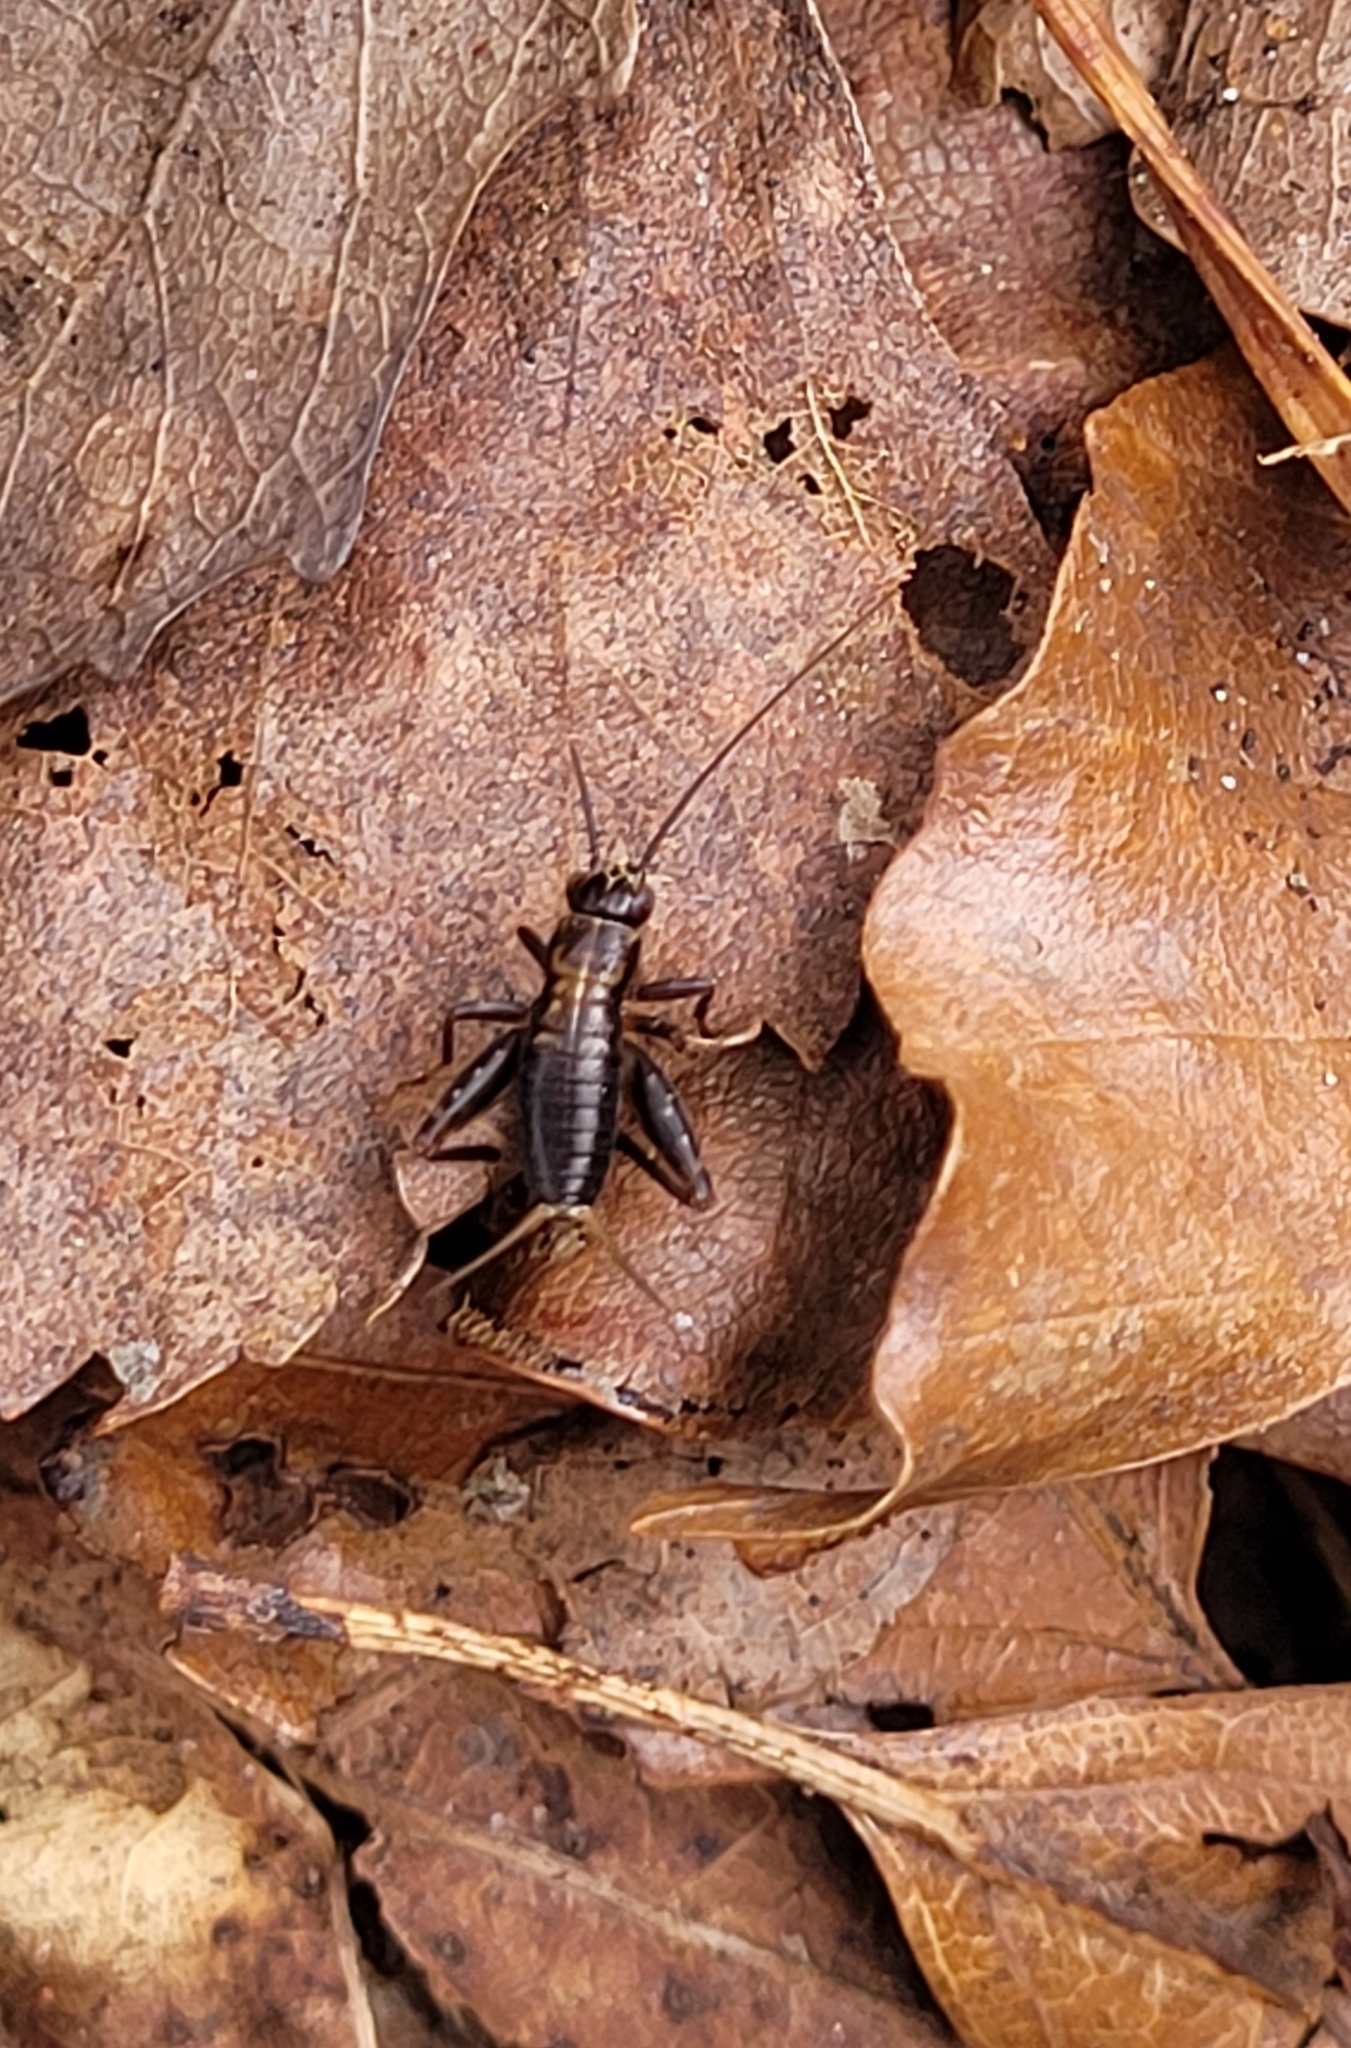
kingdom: Animalia
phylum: Arthropoda
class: Insecta
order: Orthoptera
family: Trigonidiidae
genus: Nemobius
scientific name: Nemobius sylvestris
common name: Wood-cricket
